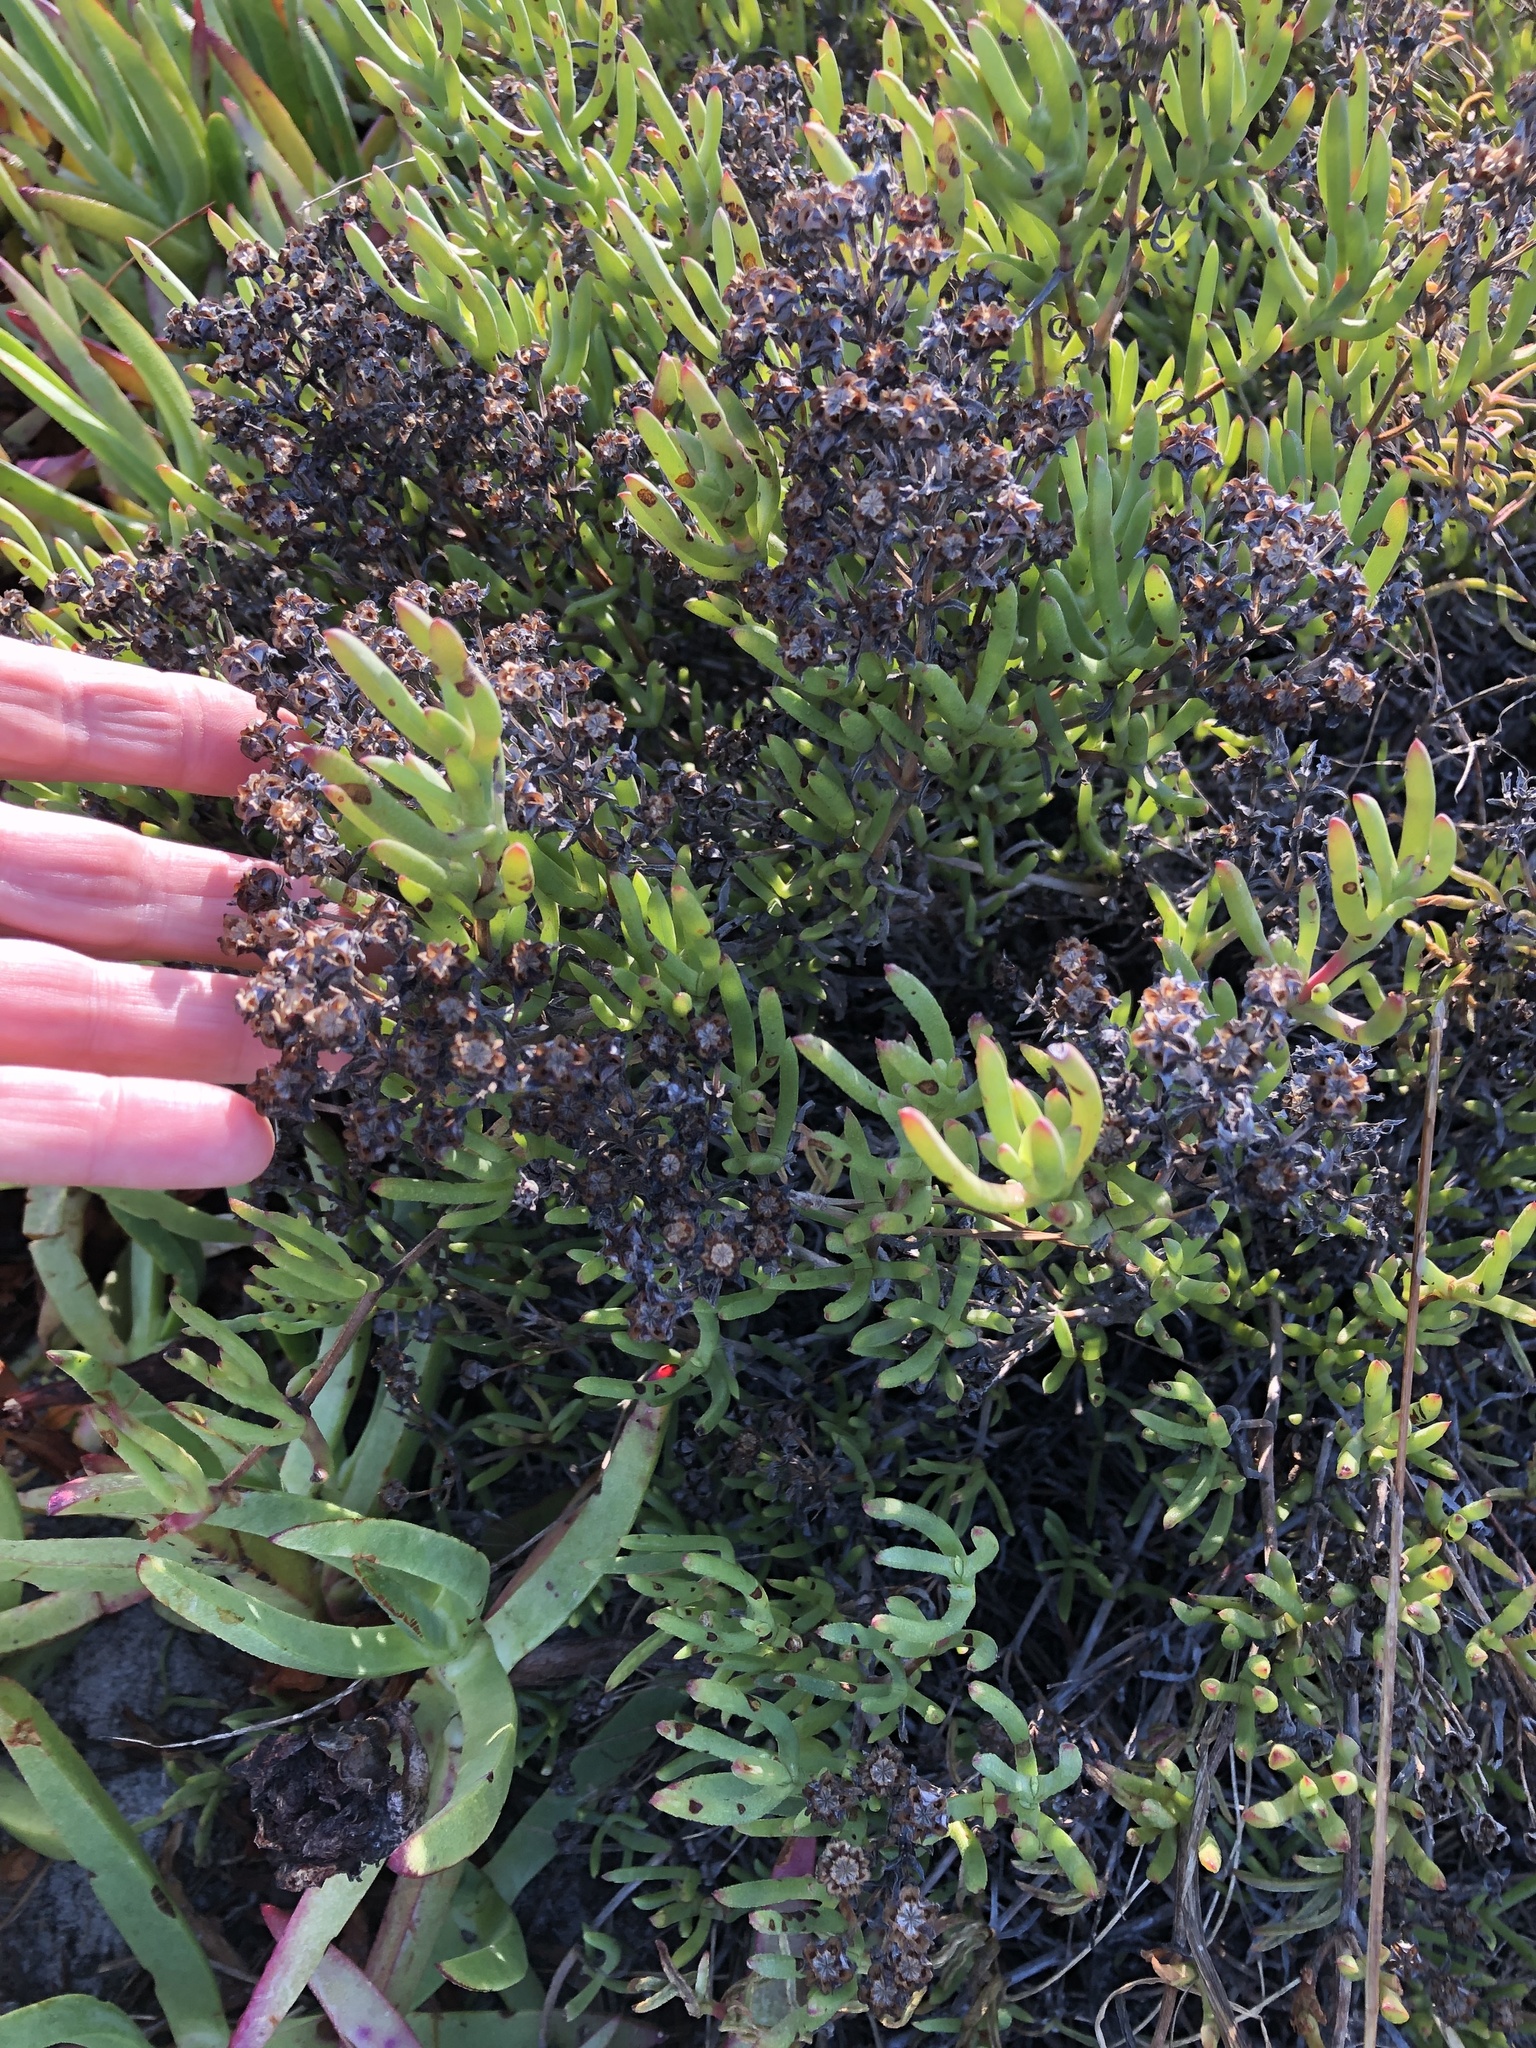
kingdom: Plantae
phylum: Tracheophyta
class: Magnoliopsida
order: Caryophyllales
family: Aizoaceae
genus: Ruschia
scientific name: Ruschia macowanii
